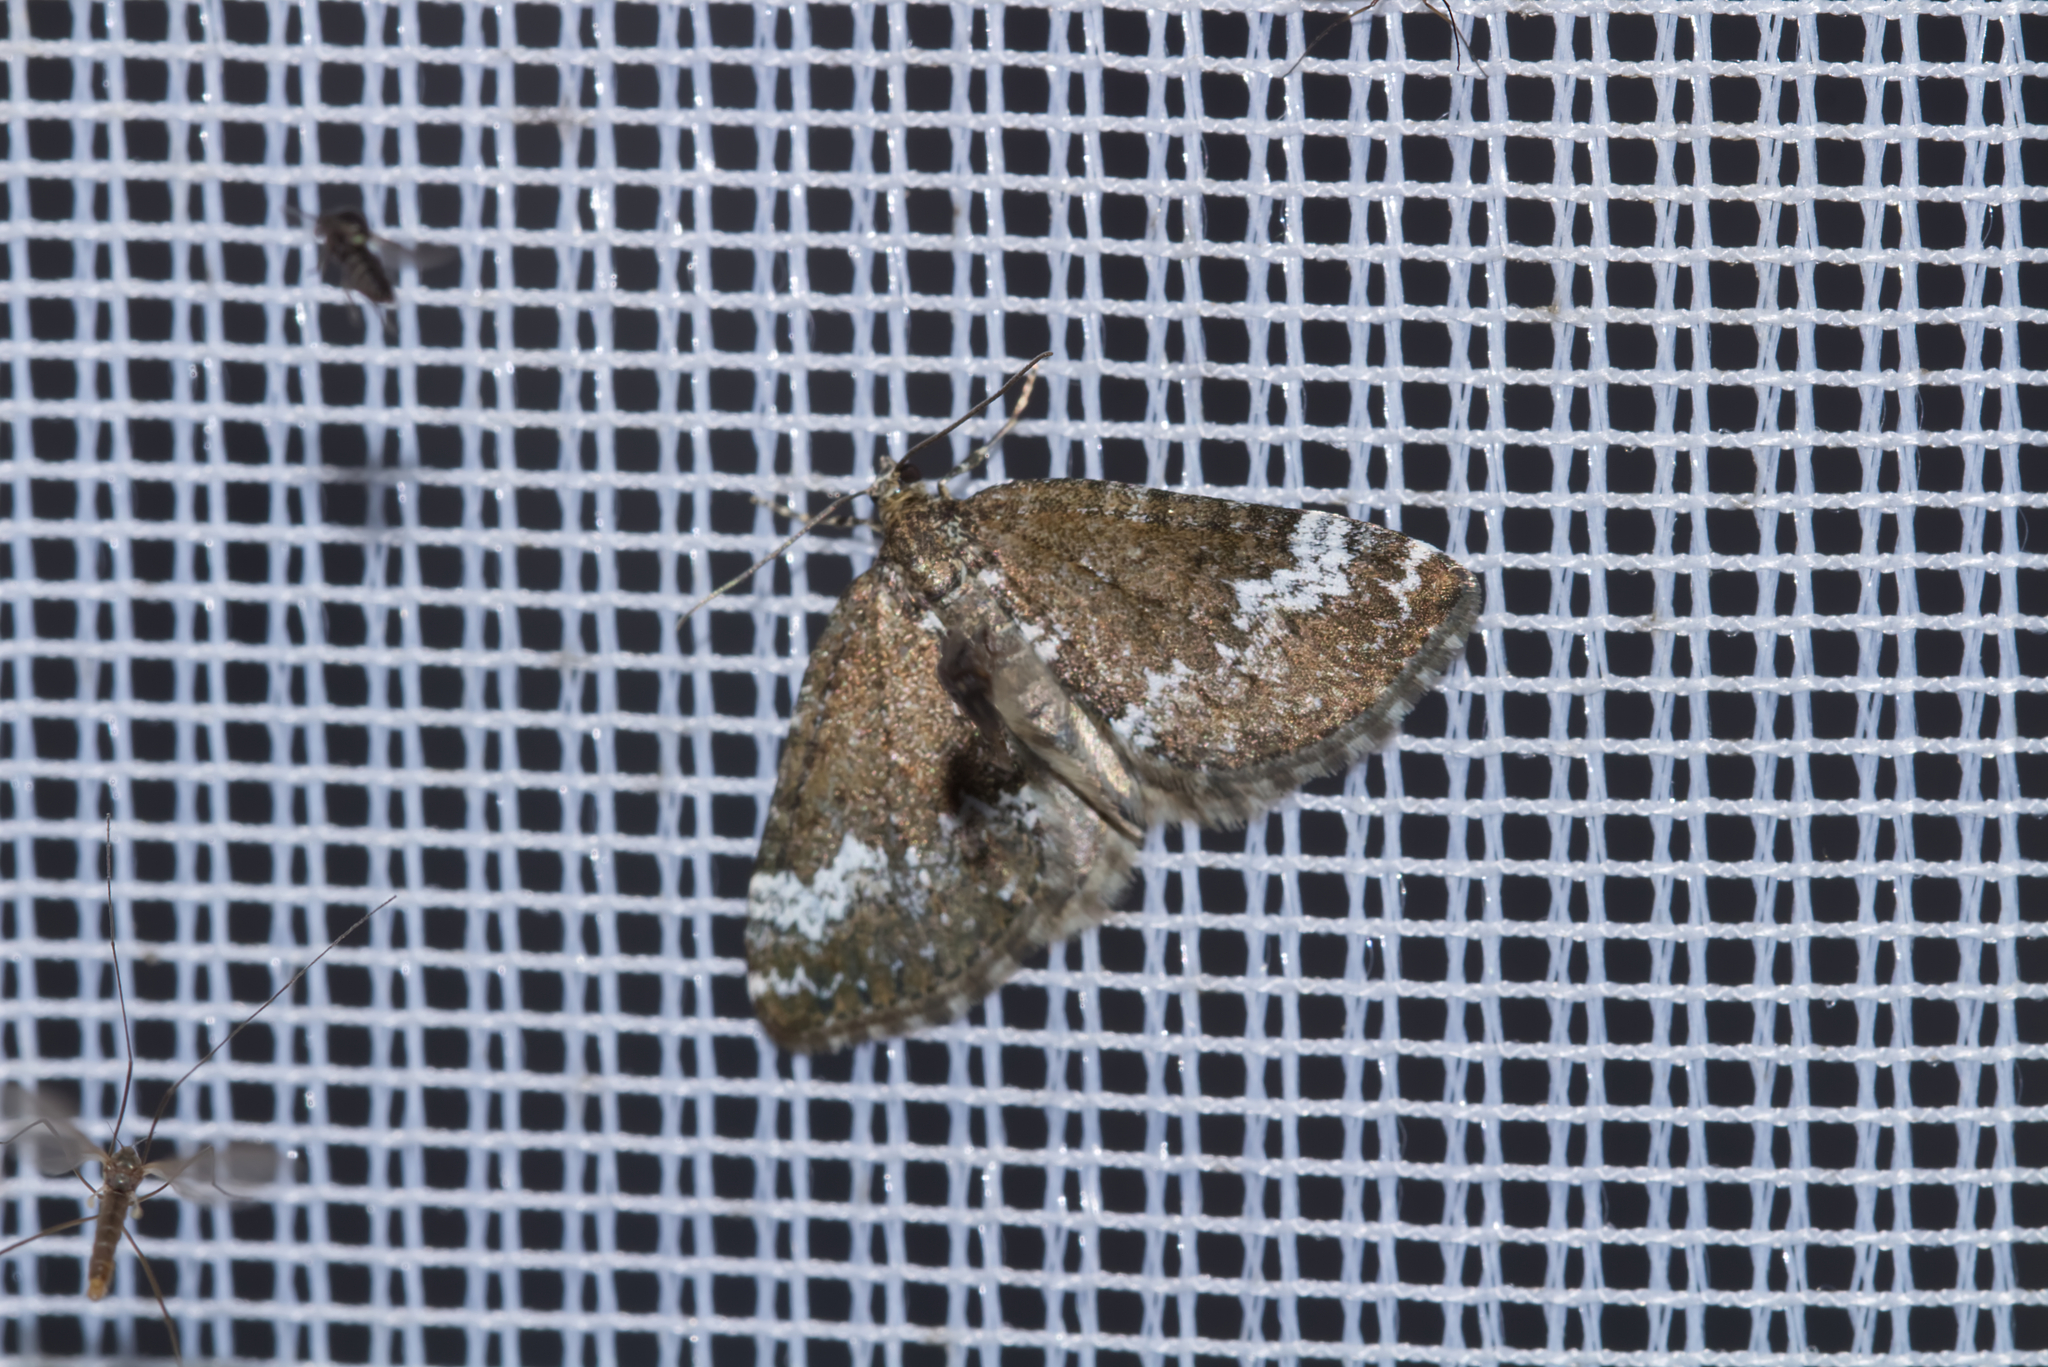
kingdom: Animalia
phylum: Arthropoda
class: Insecta
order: Lepidoptera
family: Geometridae
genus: Perizoma
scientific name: Perizoma alchemillata
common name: Small rivulet
